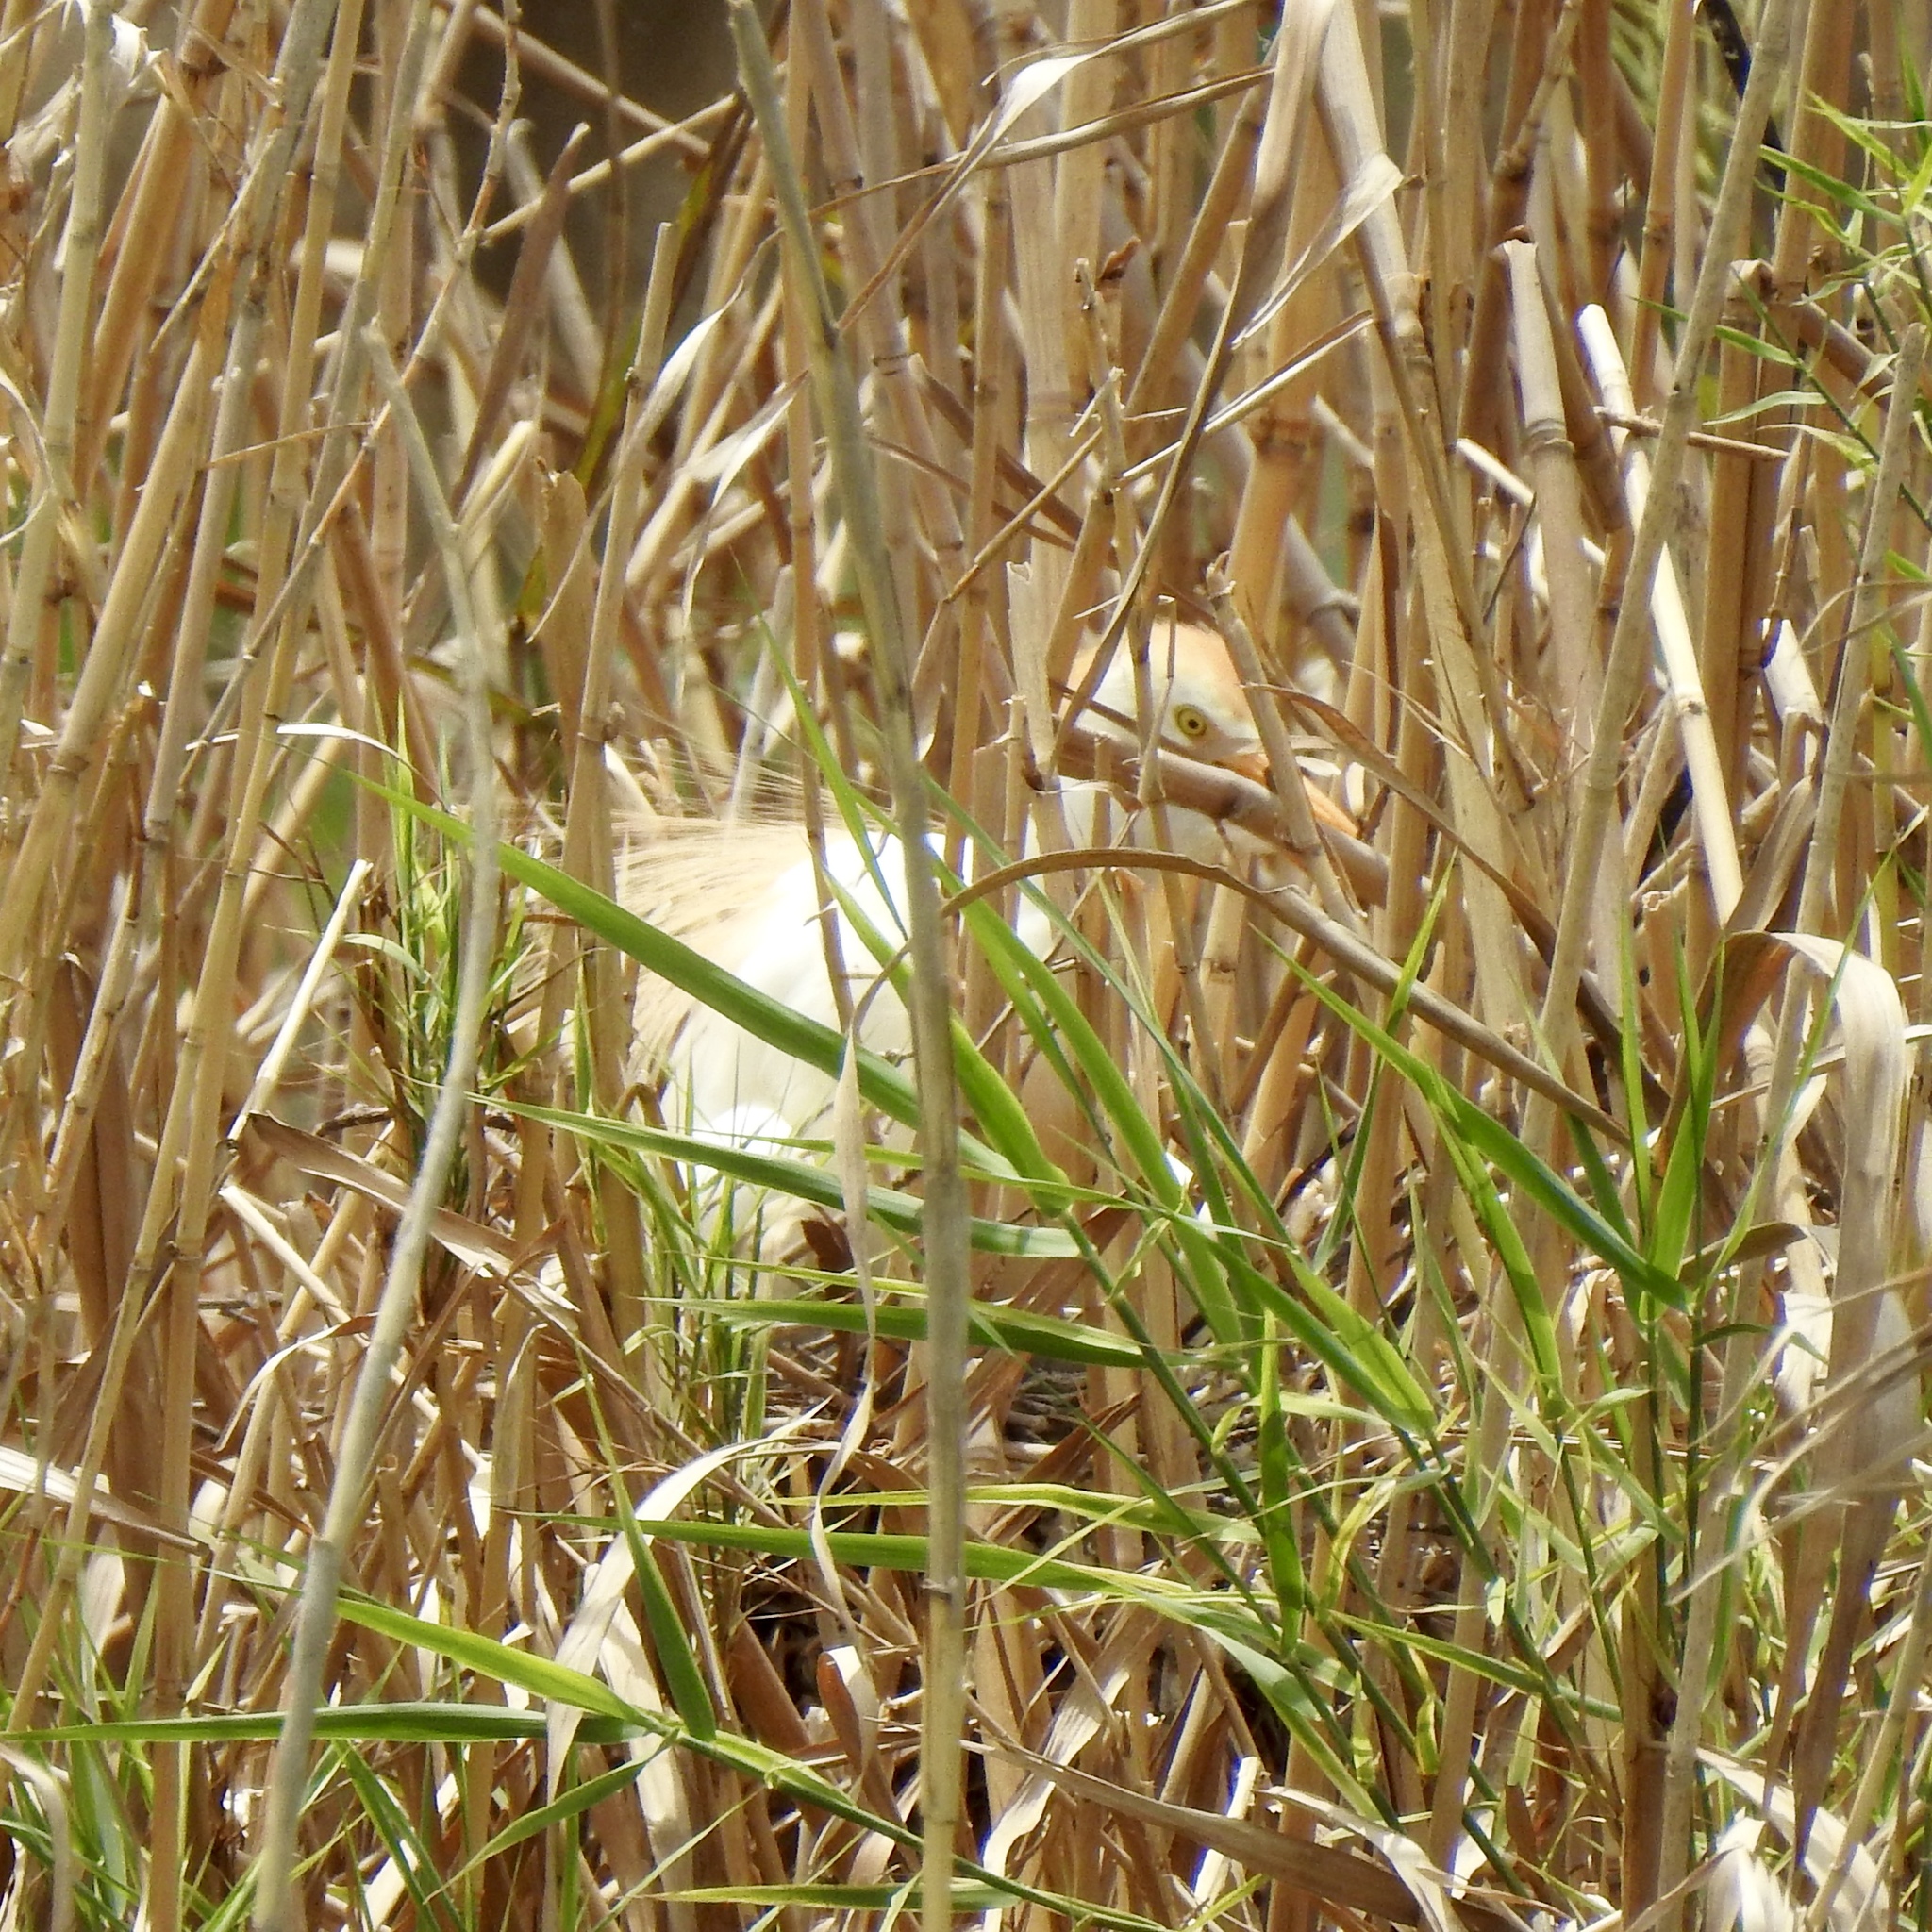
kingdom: Animalia
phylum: Chordata
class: Aves
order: Pelecaniformes
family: Ardeidae
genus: Bubulcus
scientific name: Bubulcus ibis
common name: Cattle egret
